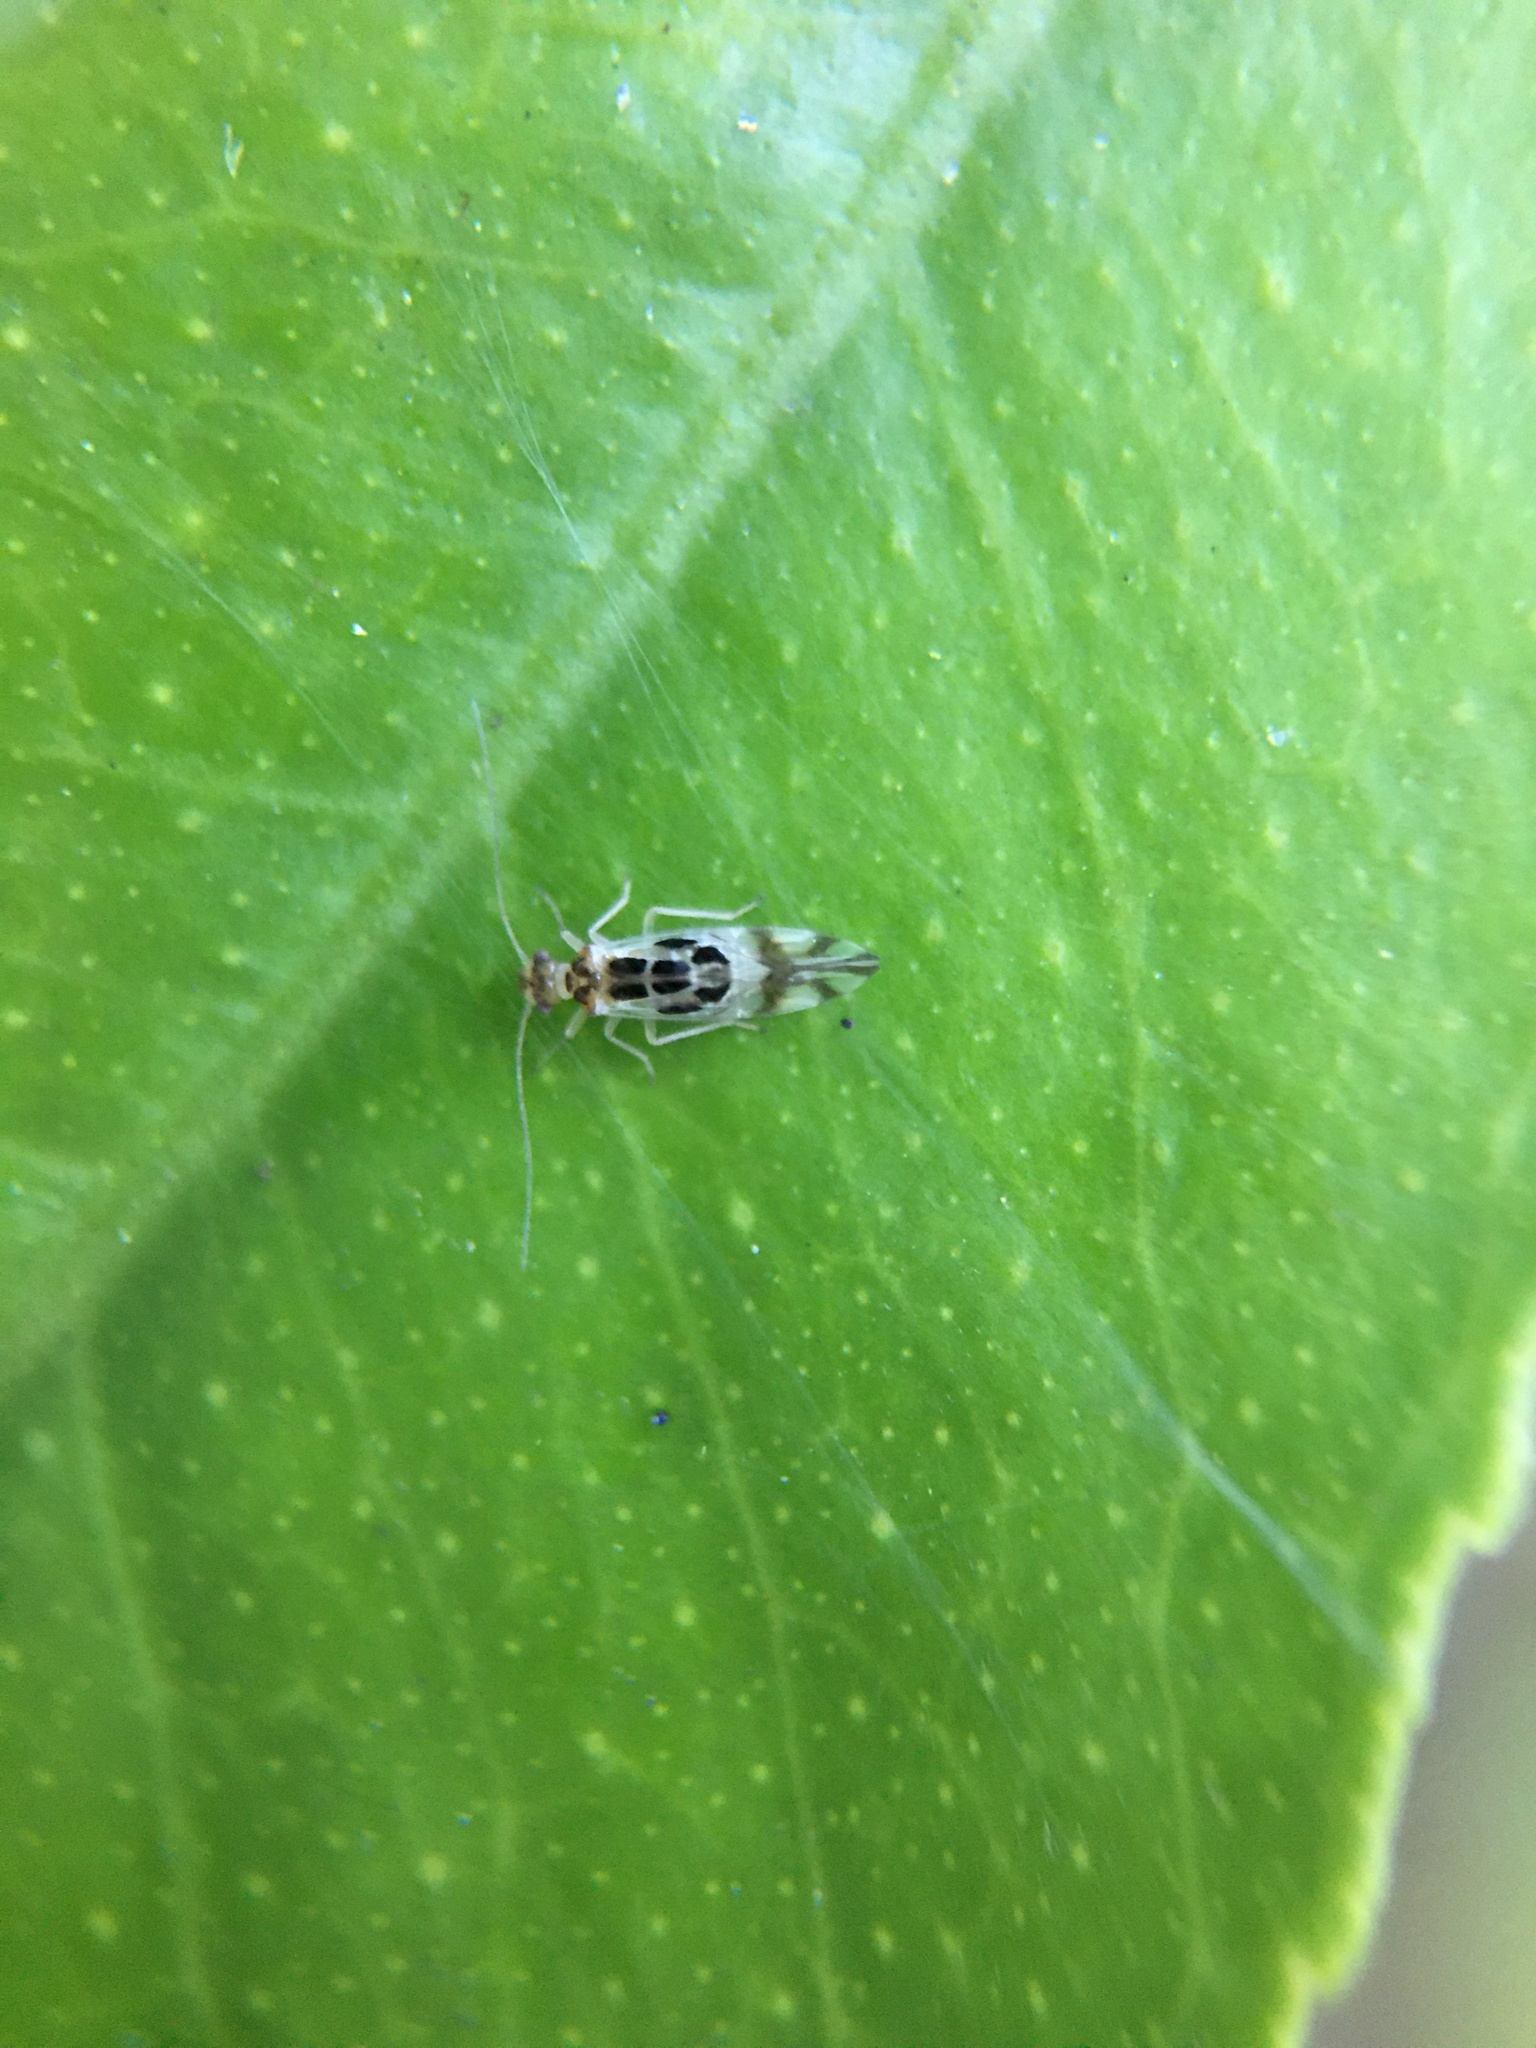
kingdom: Animalia
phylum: Arthropoda
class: Insecta
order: Psocodea
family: Stenopsocidae
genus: Graphopsocus
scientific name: Graphopsocus cruciatus
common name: Lizard bark louse
